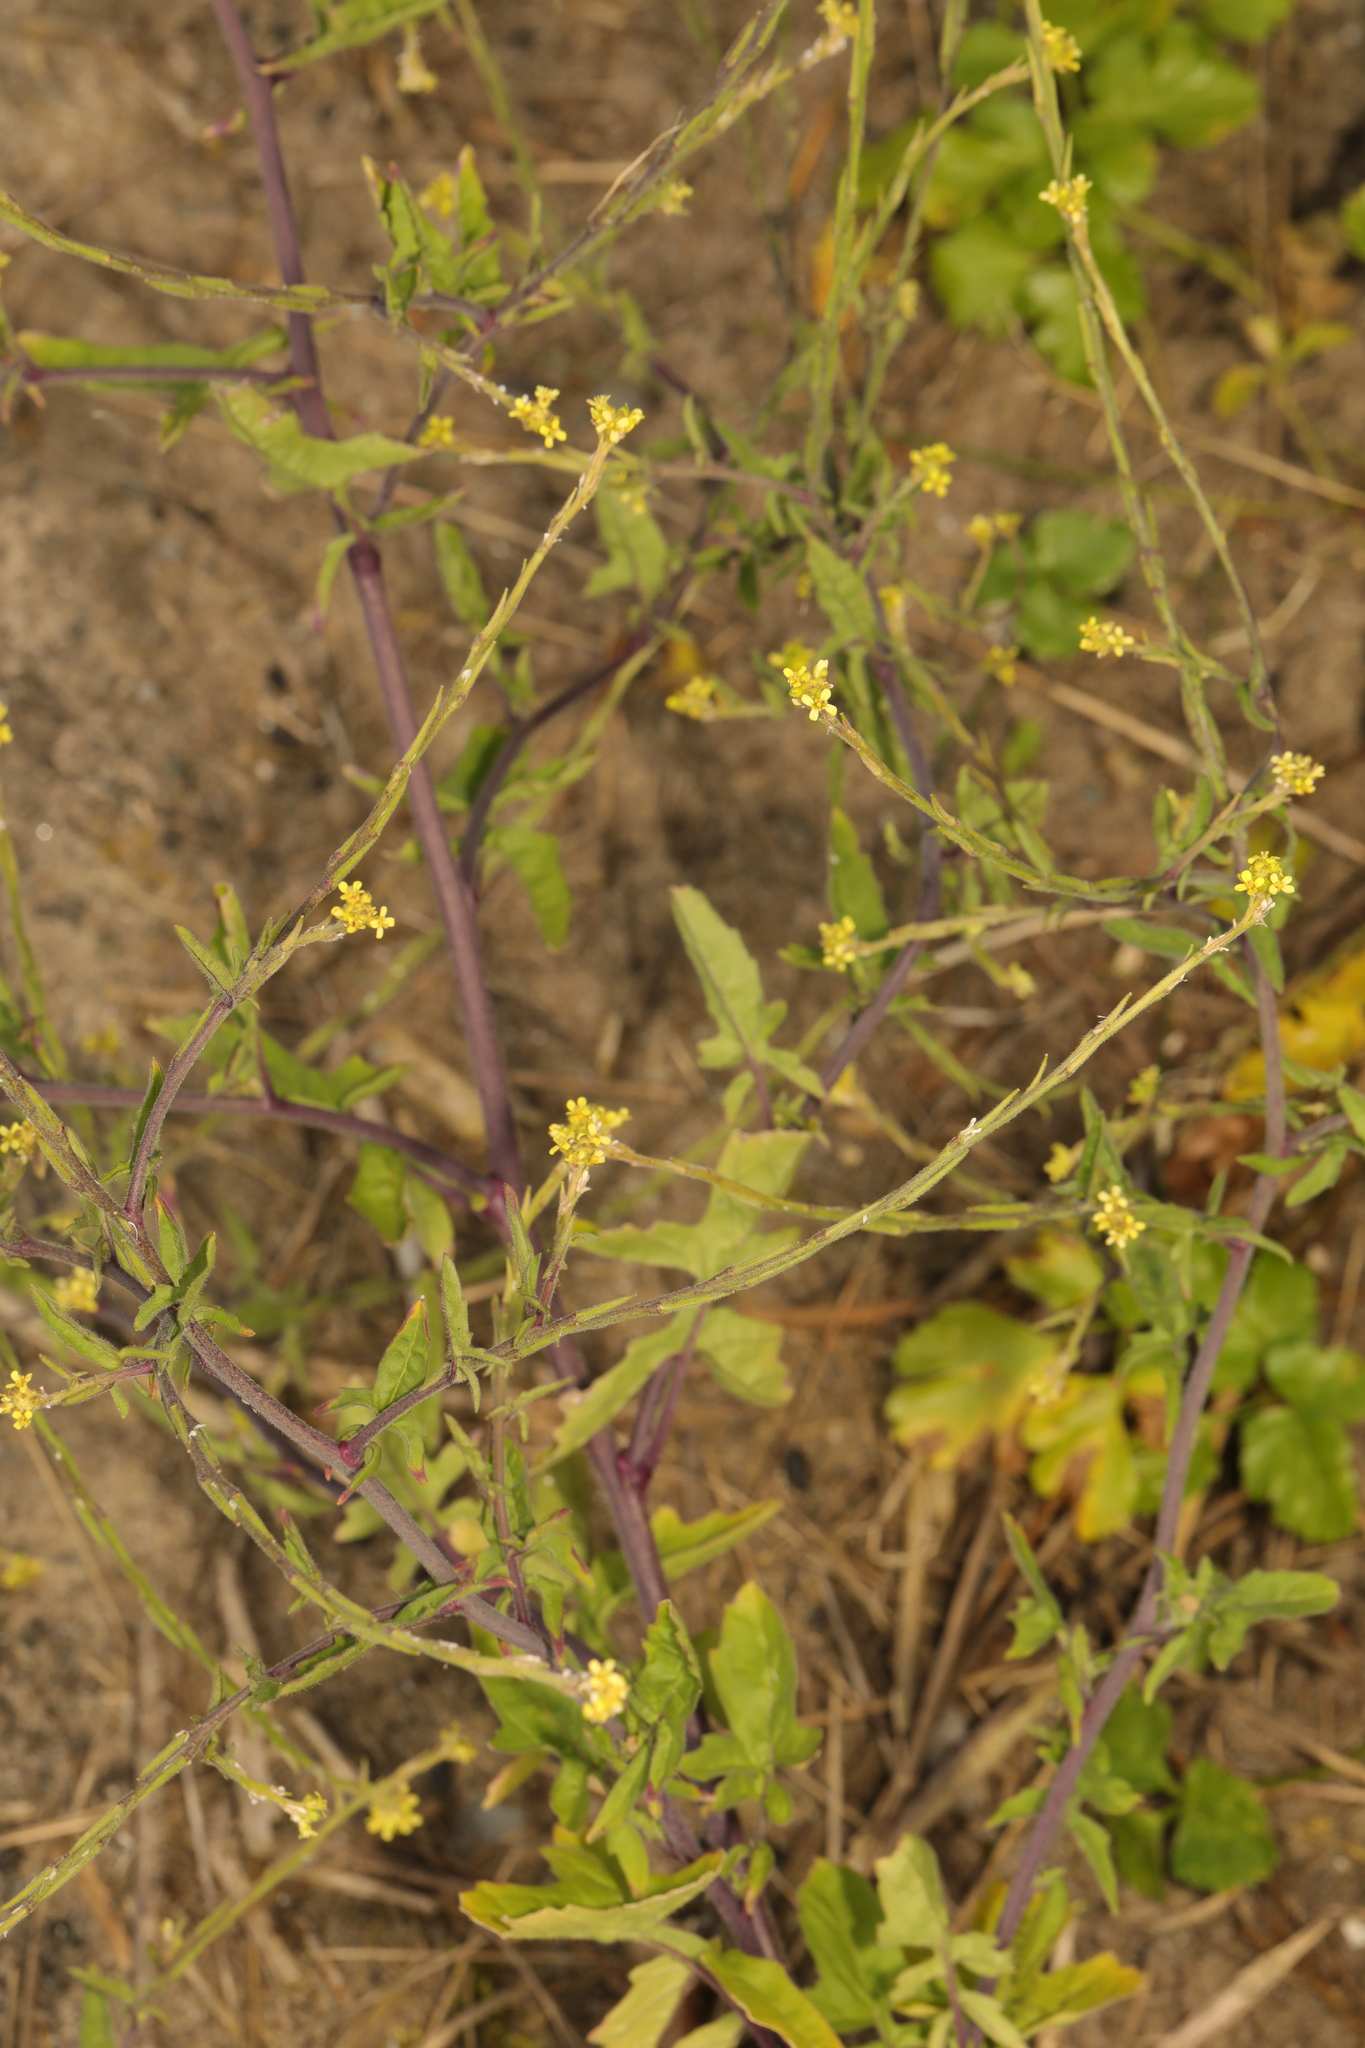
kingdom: Plantae
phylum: Tracheophyta
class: Magnoliopsida
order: Brassicales
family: Brassicaceae
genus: Sisymbrium
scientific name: Sisymbrium officinale
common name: Hedge mustard
